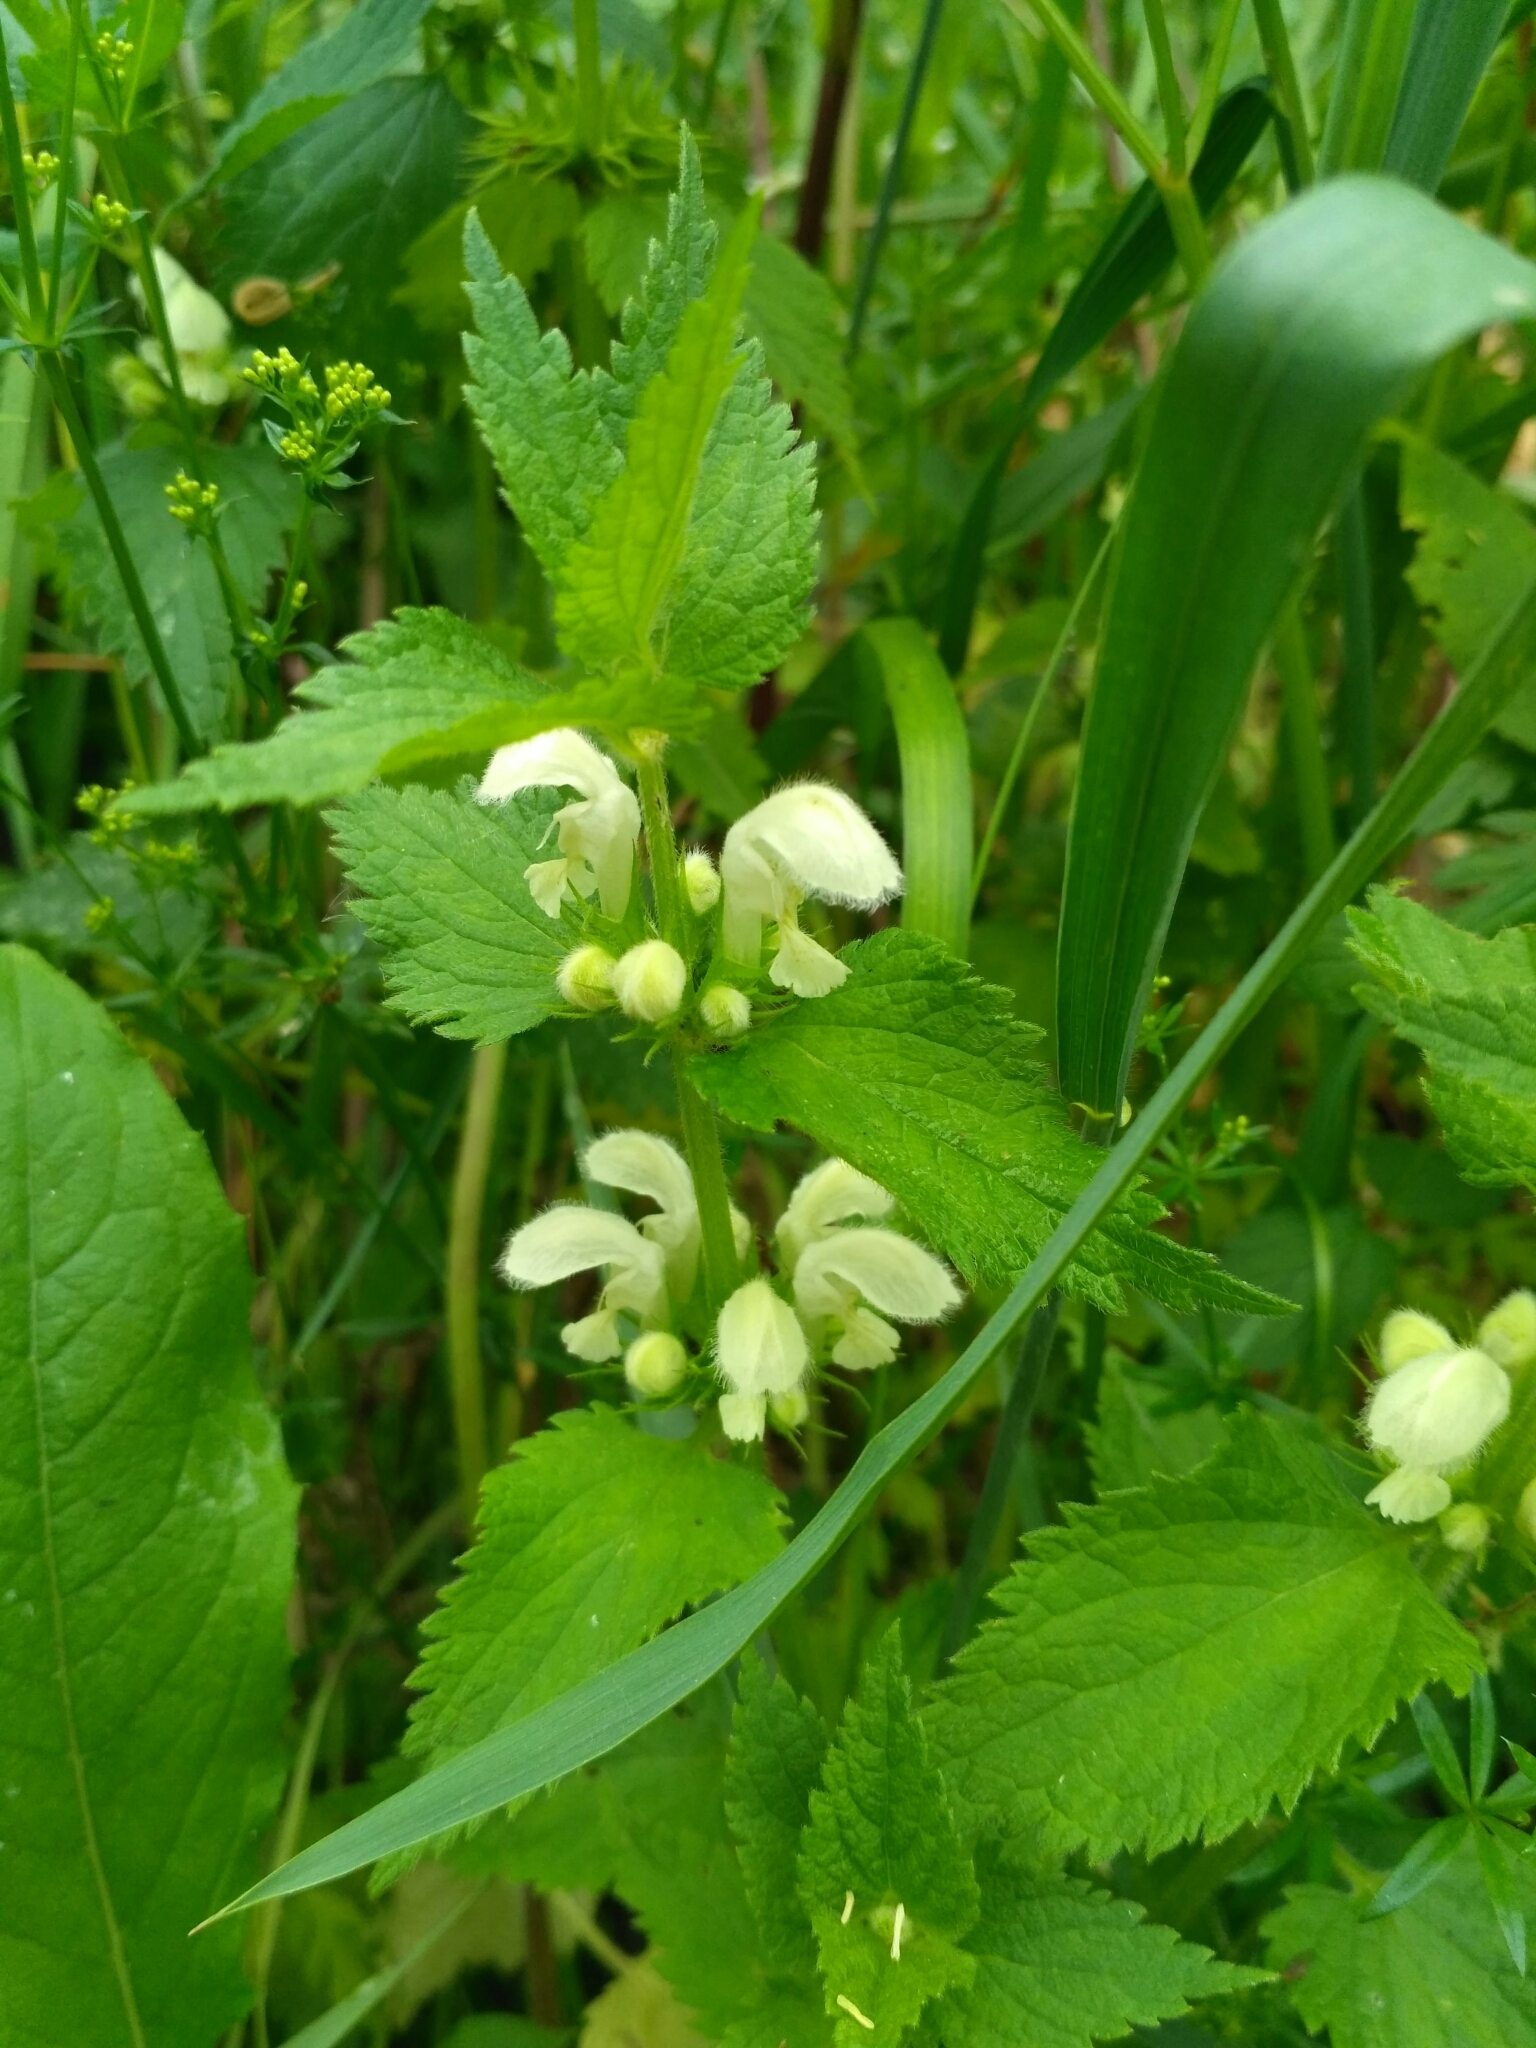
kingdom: Plantae
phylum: Tracheophyta
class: Magnoliopsida
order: Lamiales
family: Lamiaceae
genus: Lamium
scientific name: Lamium album
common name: White dead-nettle
